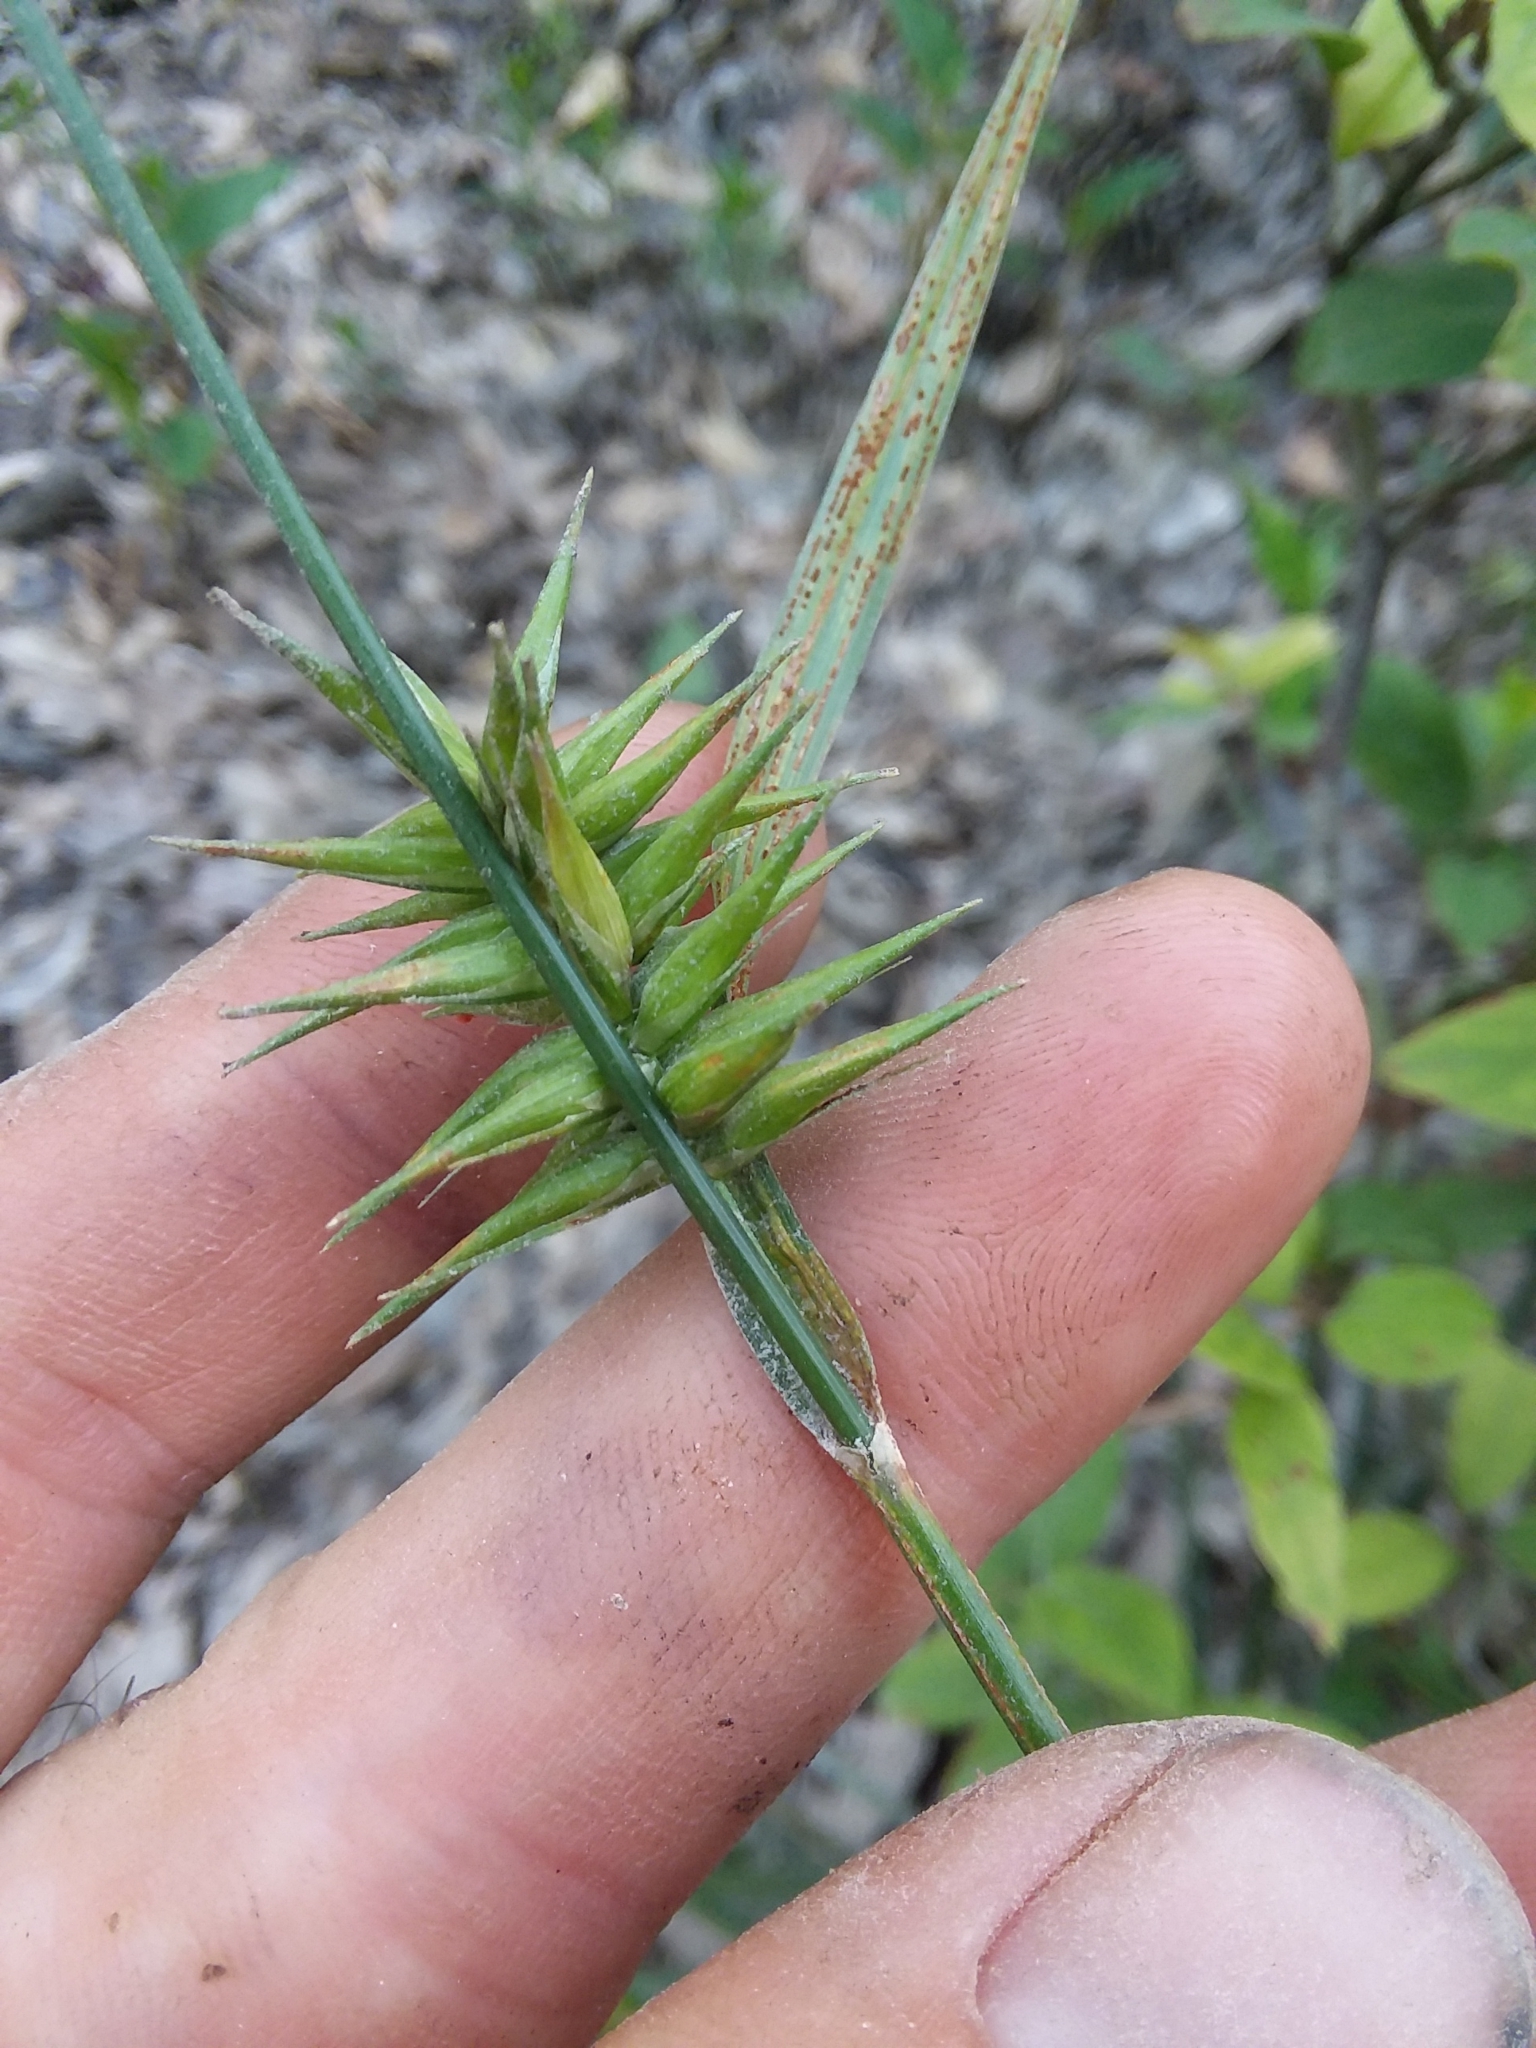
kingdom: Plantae
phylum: Tracheophyta
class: Liliopsida
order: Poales
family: Cyperaceae
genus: Carex
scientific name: Carex lonchocarpa
